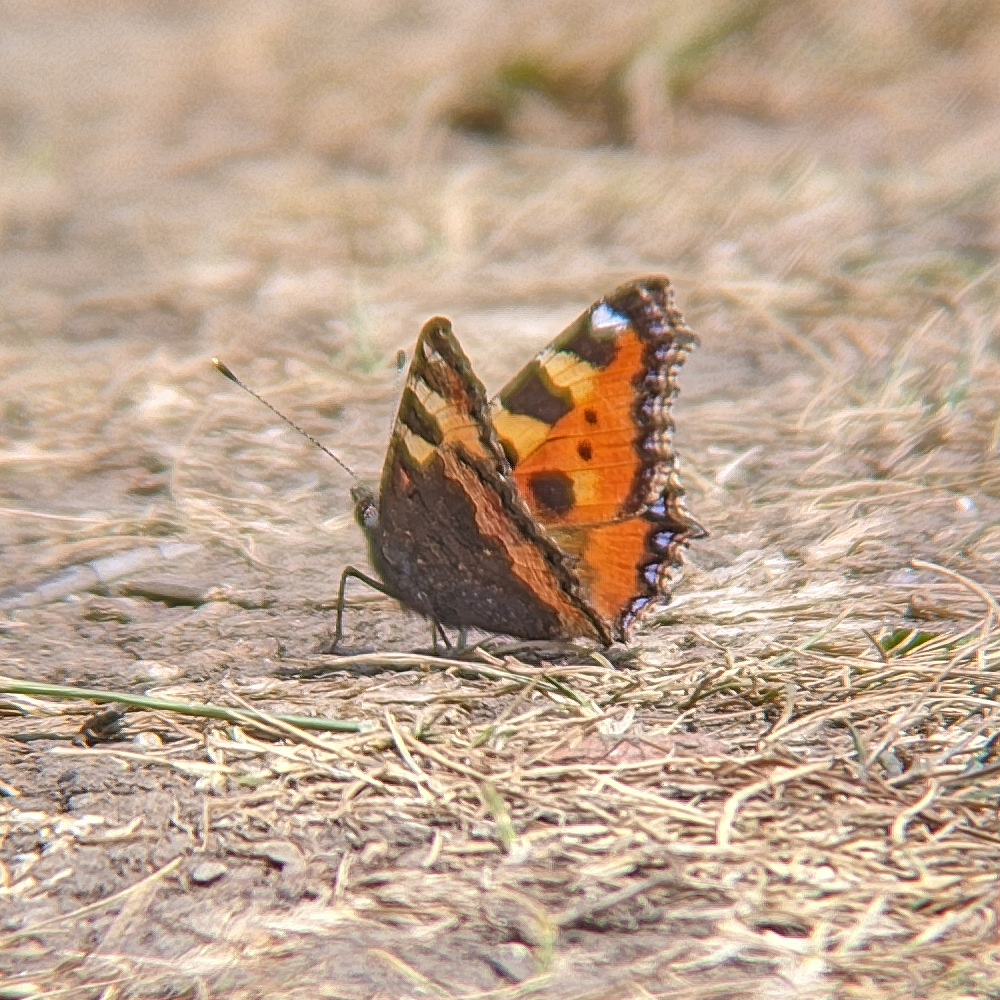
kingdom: Animalia
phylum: Arthropoda
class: Insecta
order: Lepidoptera
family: Nymphalidae
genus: Aglais
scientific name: Aglais urticae
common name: Small tortoiseshell
